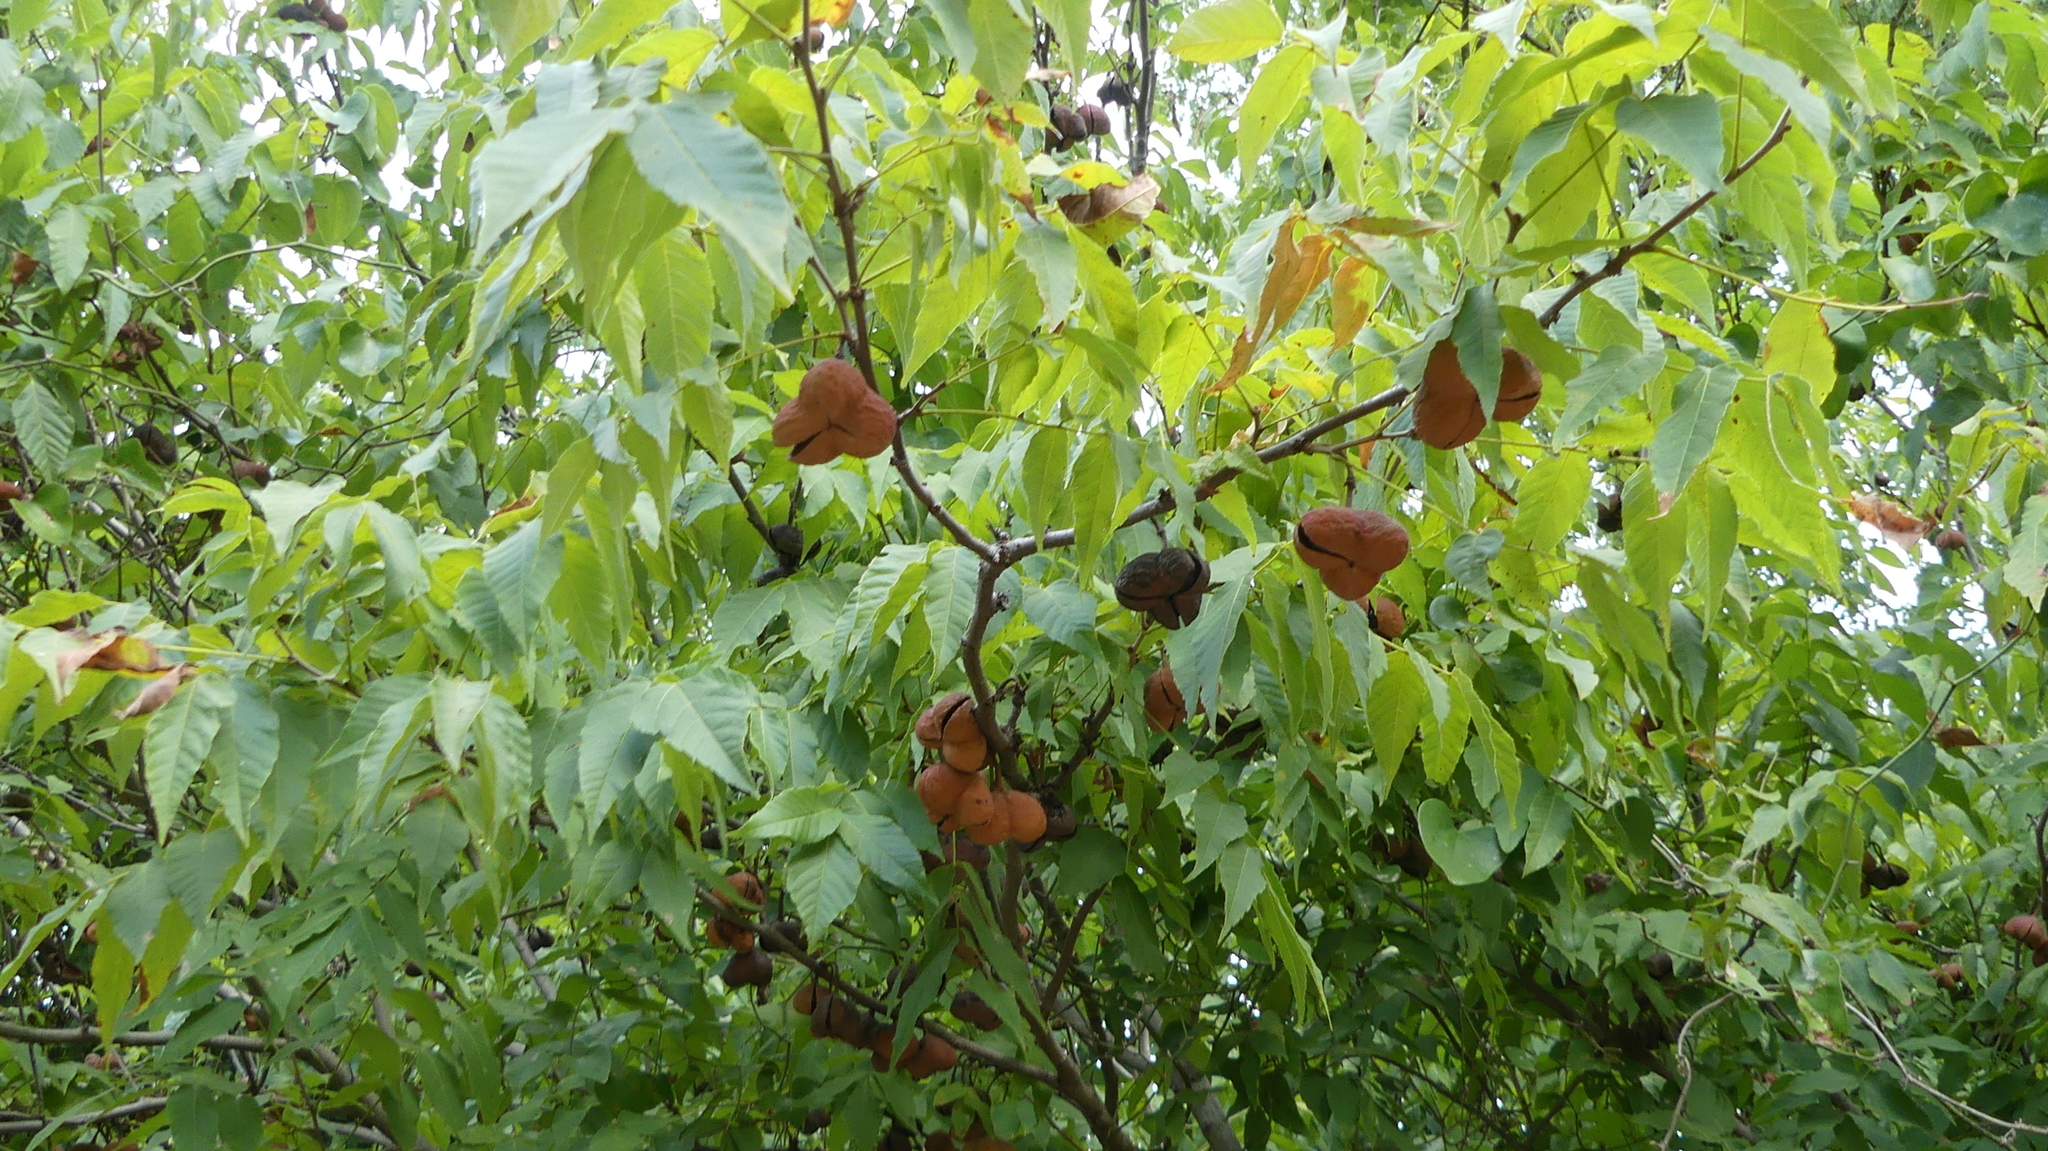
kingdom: Plantae
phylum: Tracheophyta
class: Magnoliopsida
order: Sapindales
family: Sapindaceae
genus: Ungnadia
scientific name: Ungnadia speciosa
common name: Texas-buckeye
